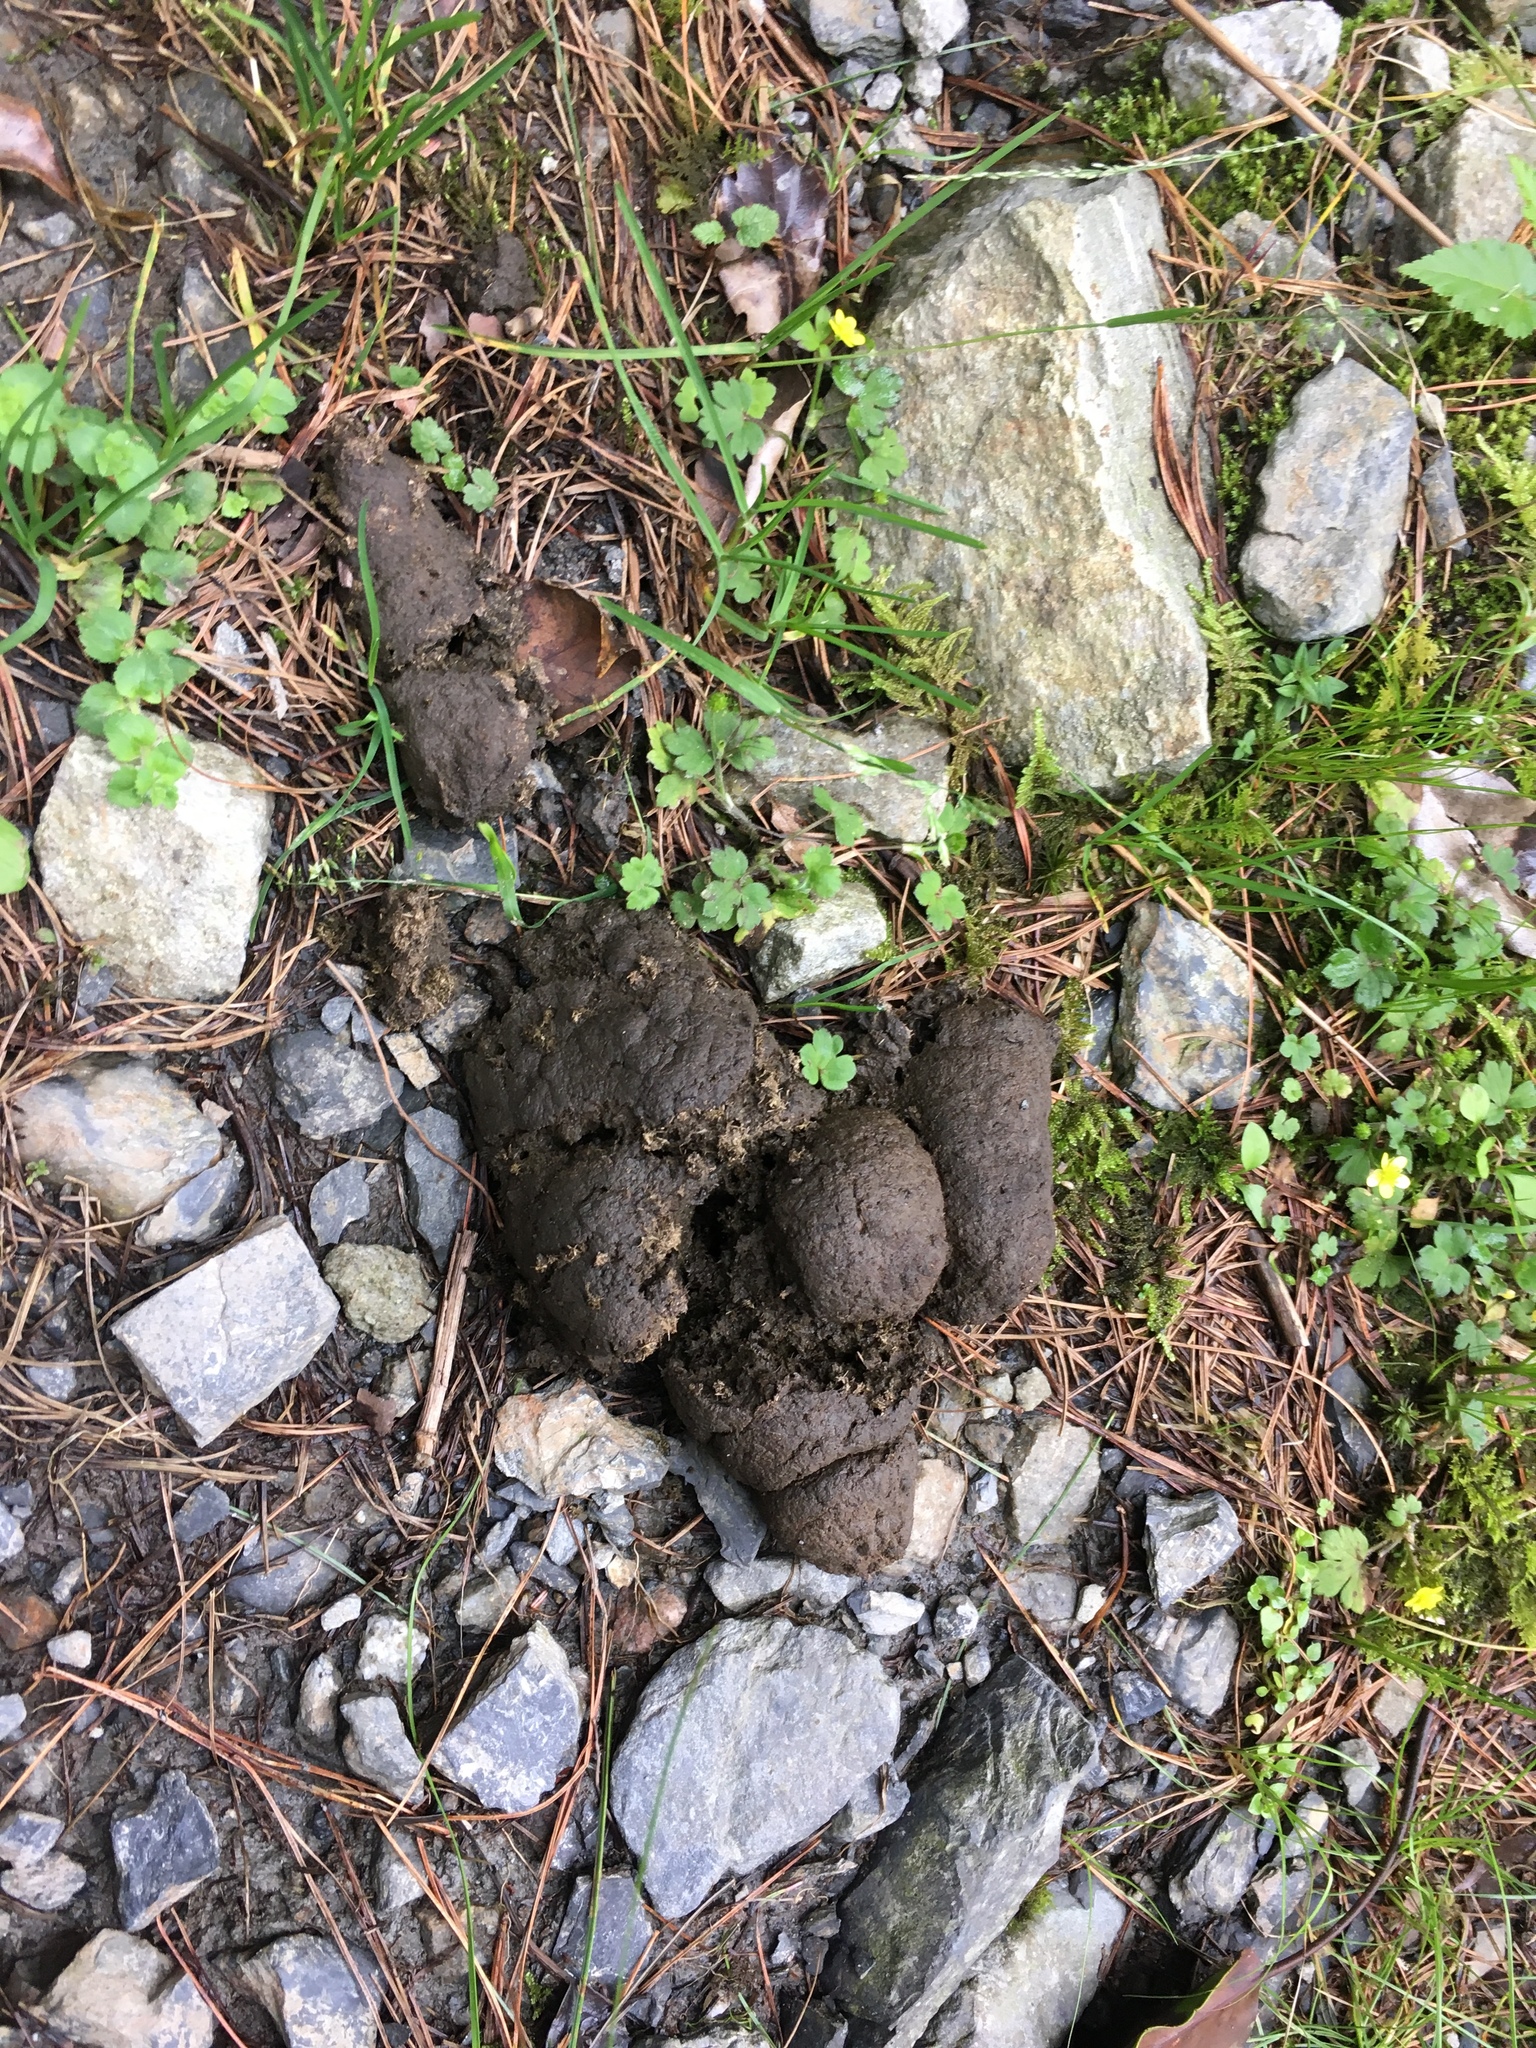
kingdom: Animalia
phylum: Chordata
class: Mammalia
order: Carnivora
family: Ursidae
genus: Ursus
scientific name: Ursus thibetanus
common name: Asiatic black bear
